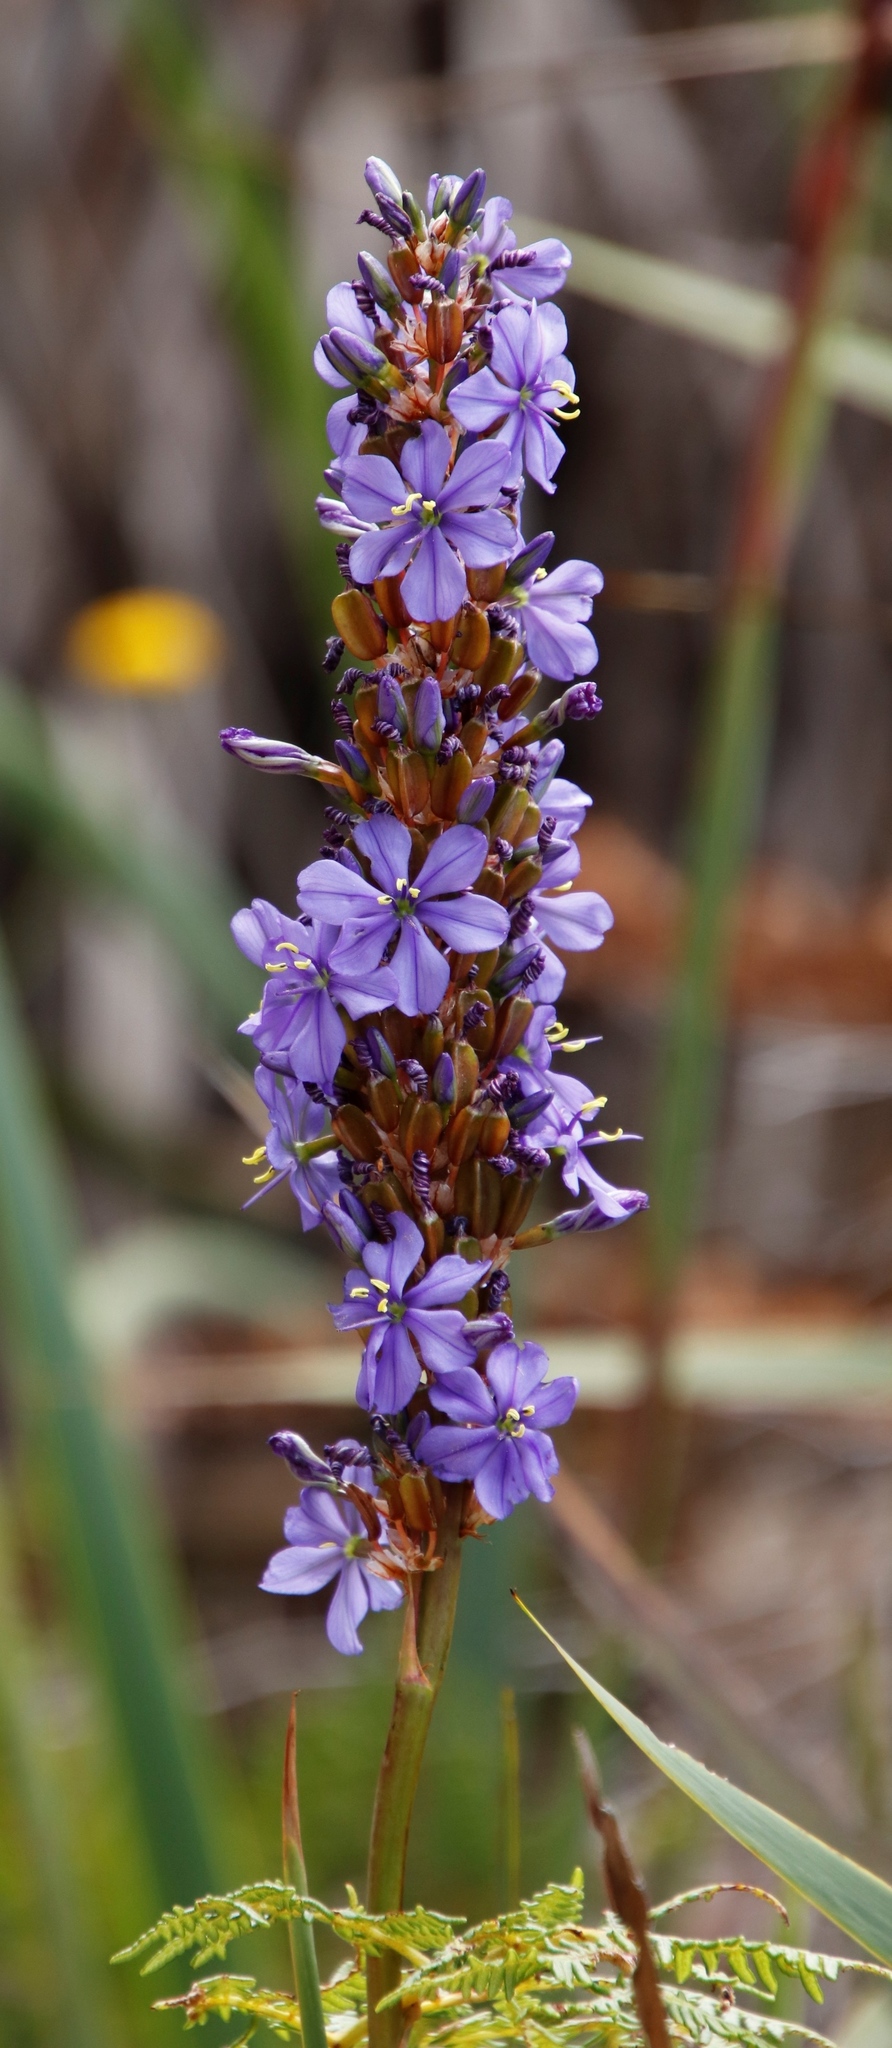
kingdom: Plantae
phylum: Tracheophyta
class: Liliopsida
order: Asparagales
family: Iridaceae
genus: Aristea
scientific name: Aristea capitata
